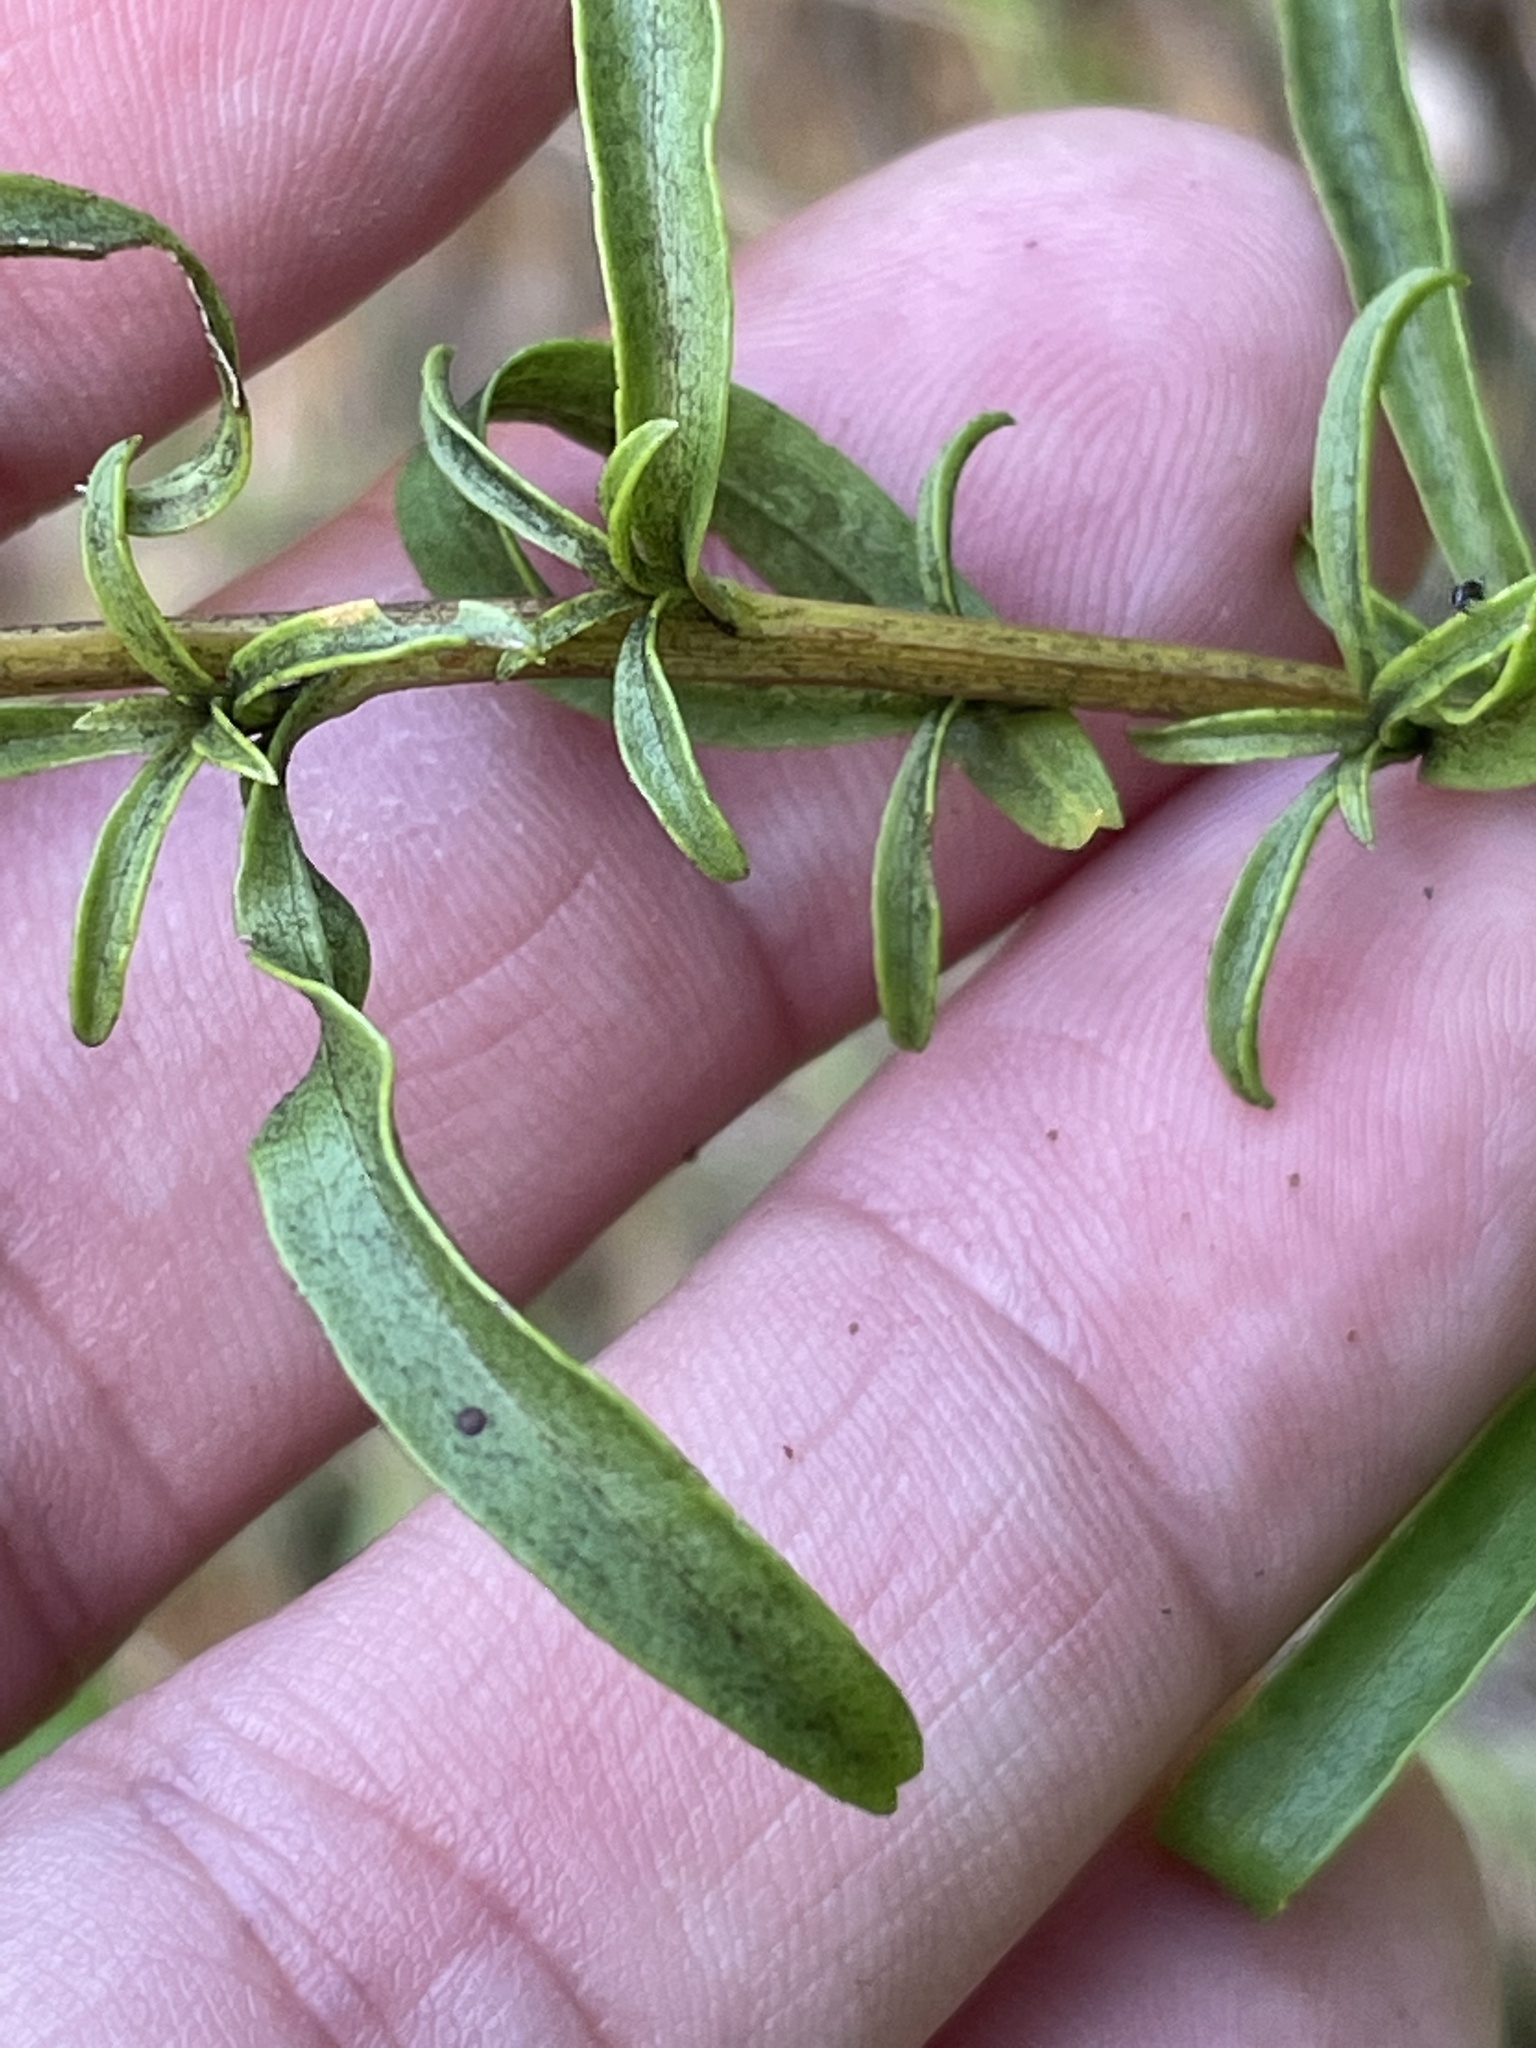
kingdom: Plantae
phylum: Tracheophyta
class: Magnoliopsida
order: Asterales
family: Asteraceae
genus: Solidago
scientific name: Solidago pinetorum
